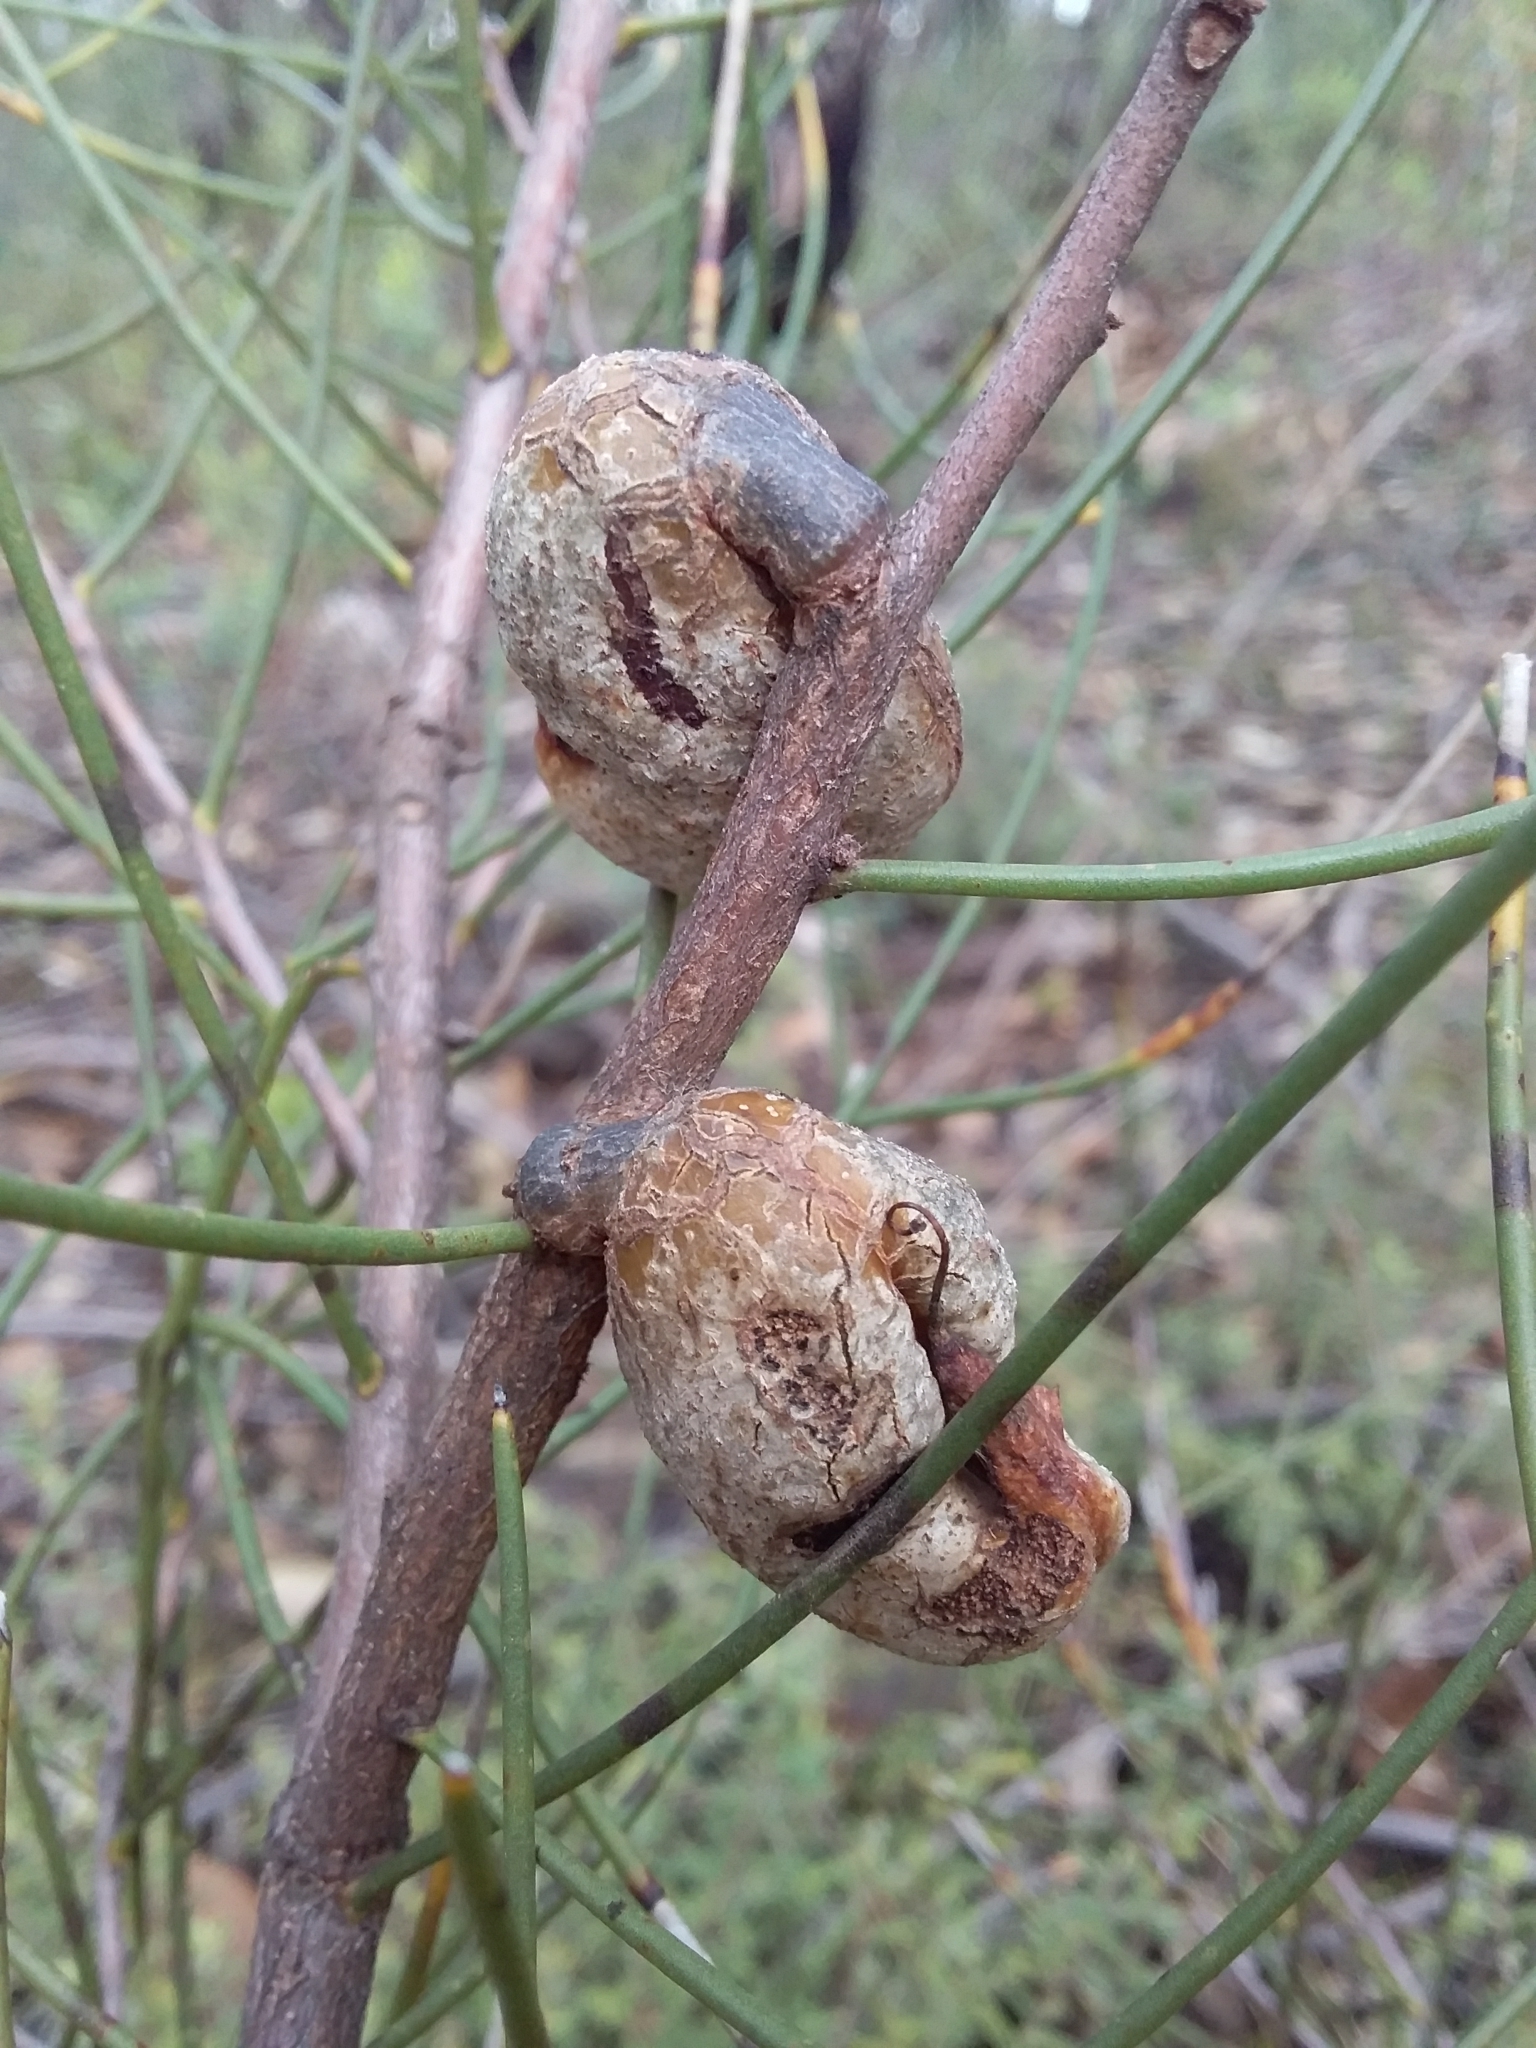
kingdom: Plantae
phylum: Tracheophyta
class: Magnoliopsida
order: Proteales
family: Proteaceae
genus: Hakea
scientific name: Hakea rostrata
